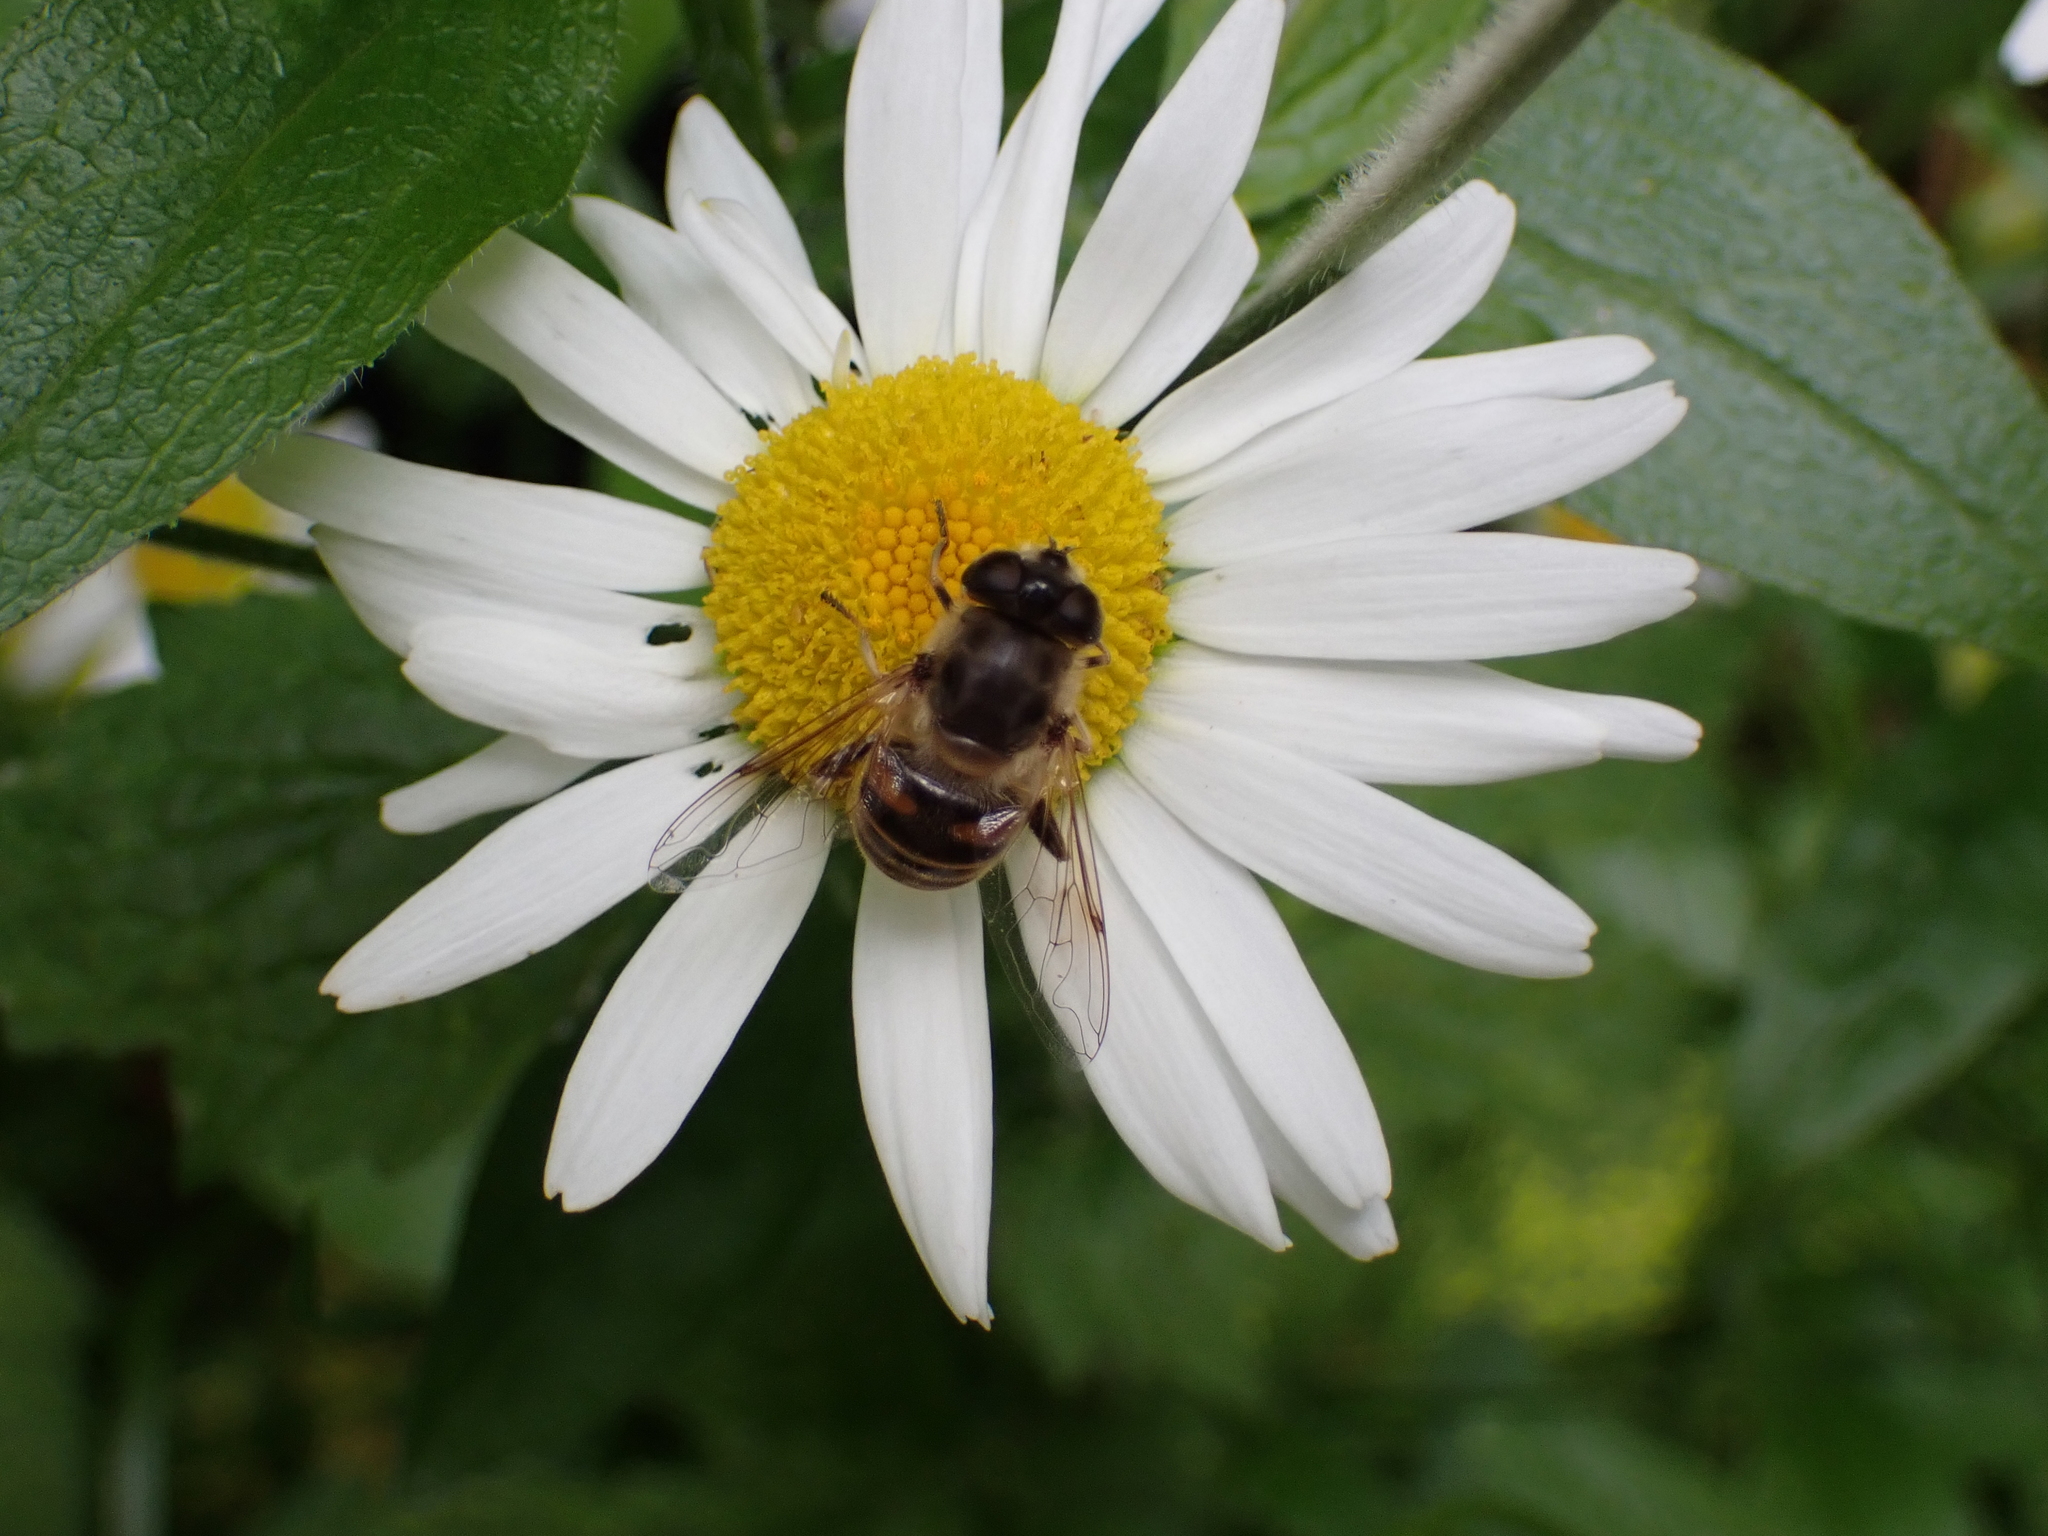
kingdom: Animalia
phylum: Arthropoda
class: Insecta
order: Diptera
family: Syrphidae
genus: Eristalis
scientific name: Eristalis tenax
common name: Drone fly
